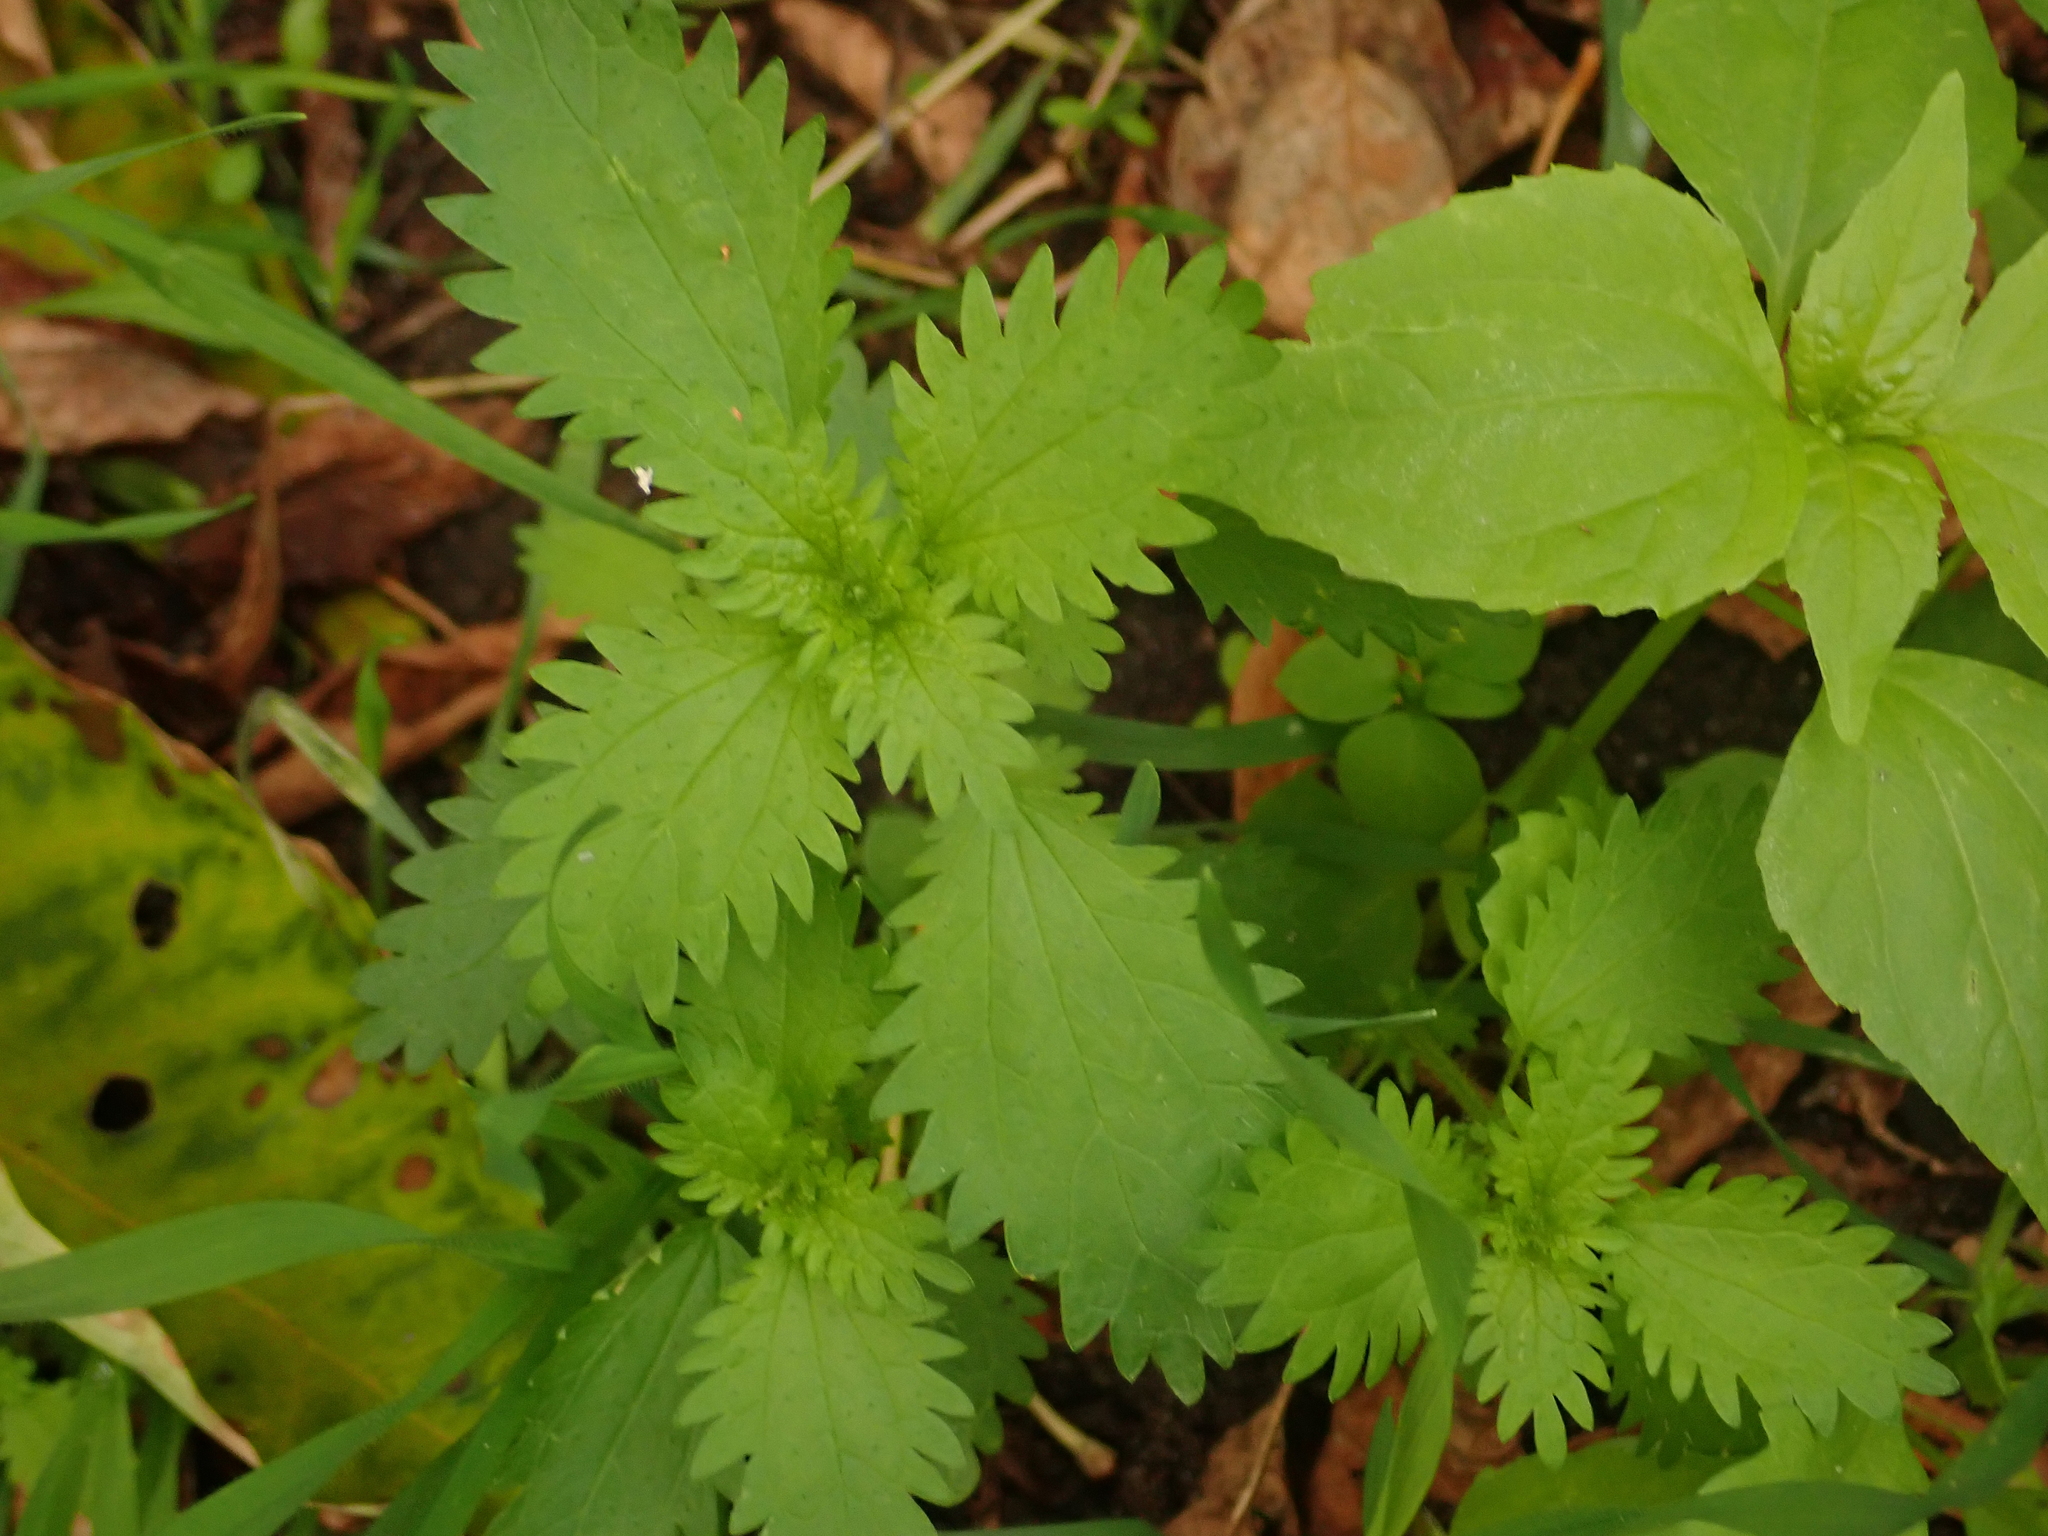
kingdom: Plantae
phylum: Tracheophyta
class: Magnoliopsida
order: Rosales
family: Urticaceae
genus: Urtica
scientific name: Urtica urens
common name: Dwarf nettle
